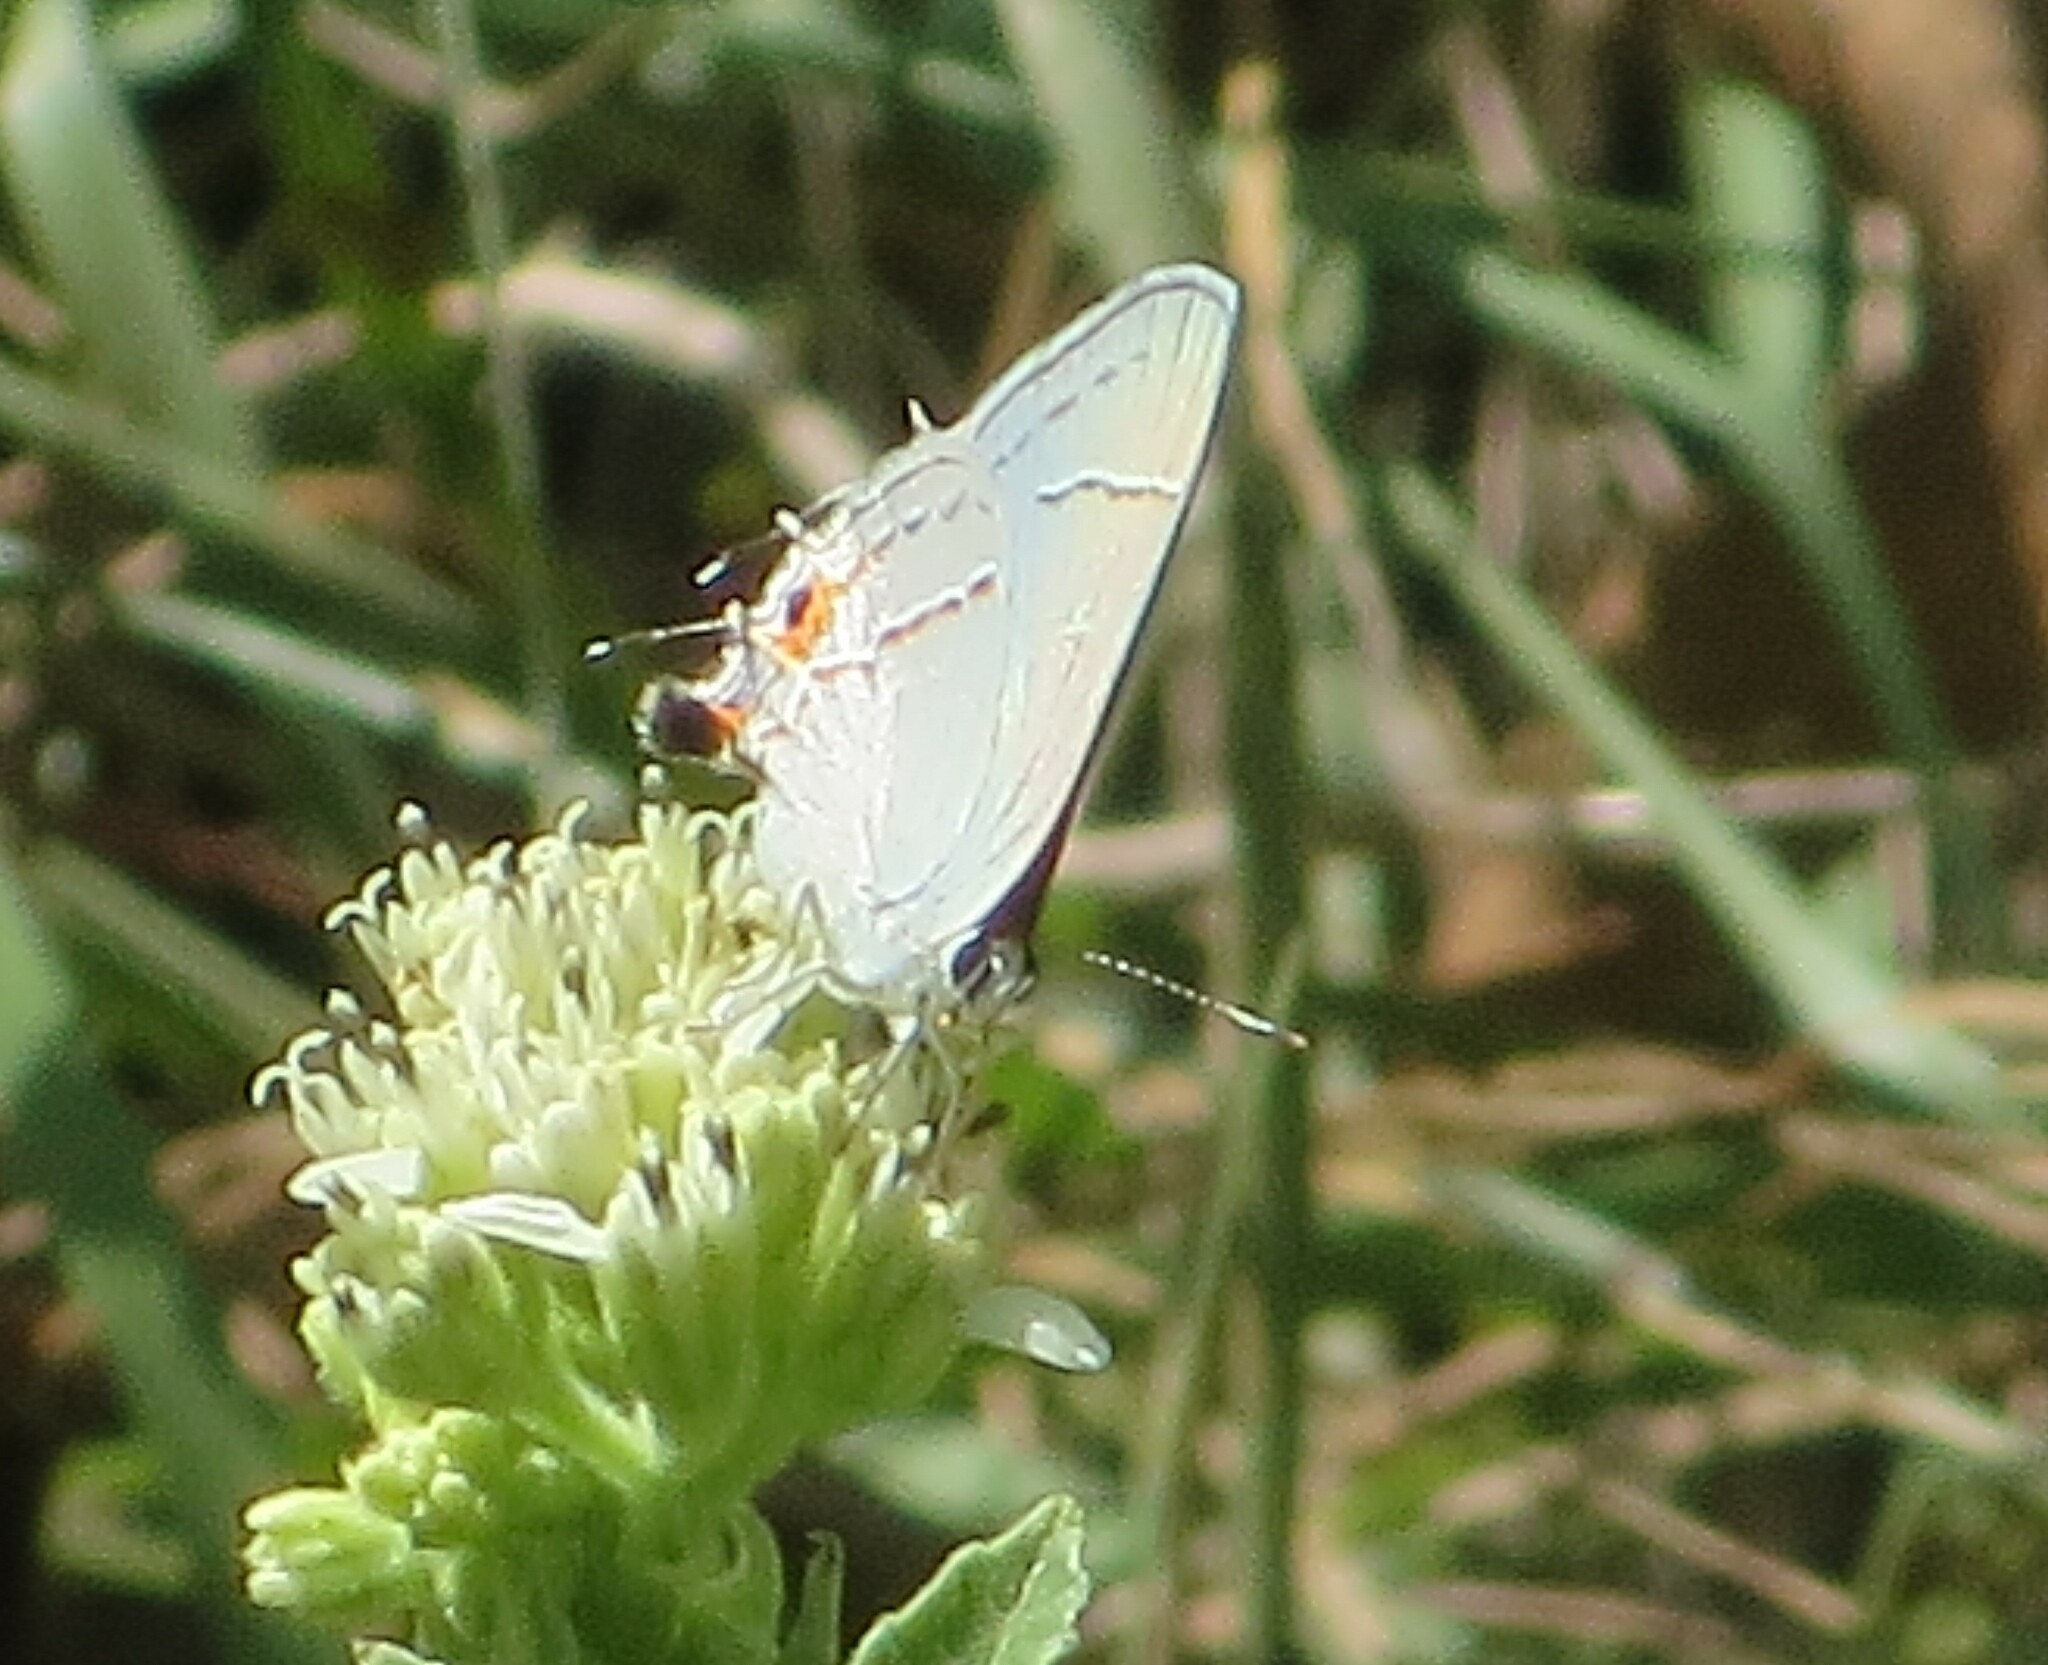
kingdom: Animalia
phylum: Arthropoda
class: Insecta
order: Lepidoptera
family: Lycaenidae
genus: Strymon
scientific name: Strymon melinus
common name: Gray hairstreak
